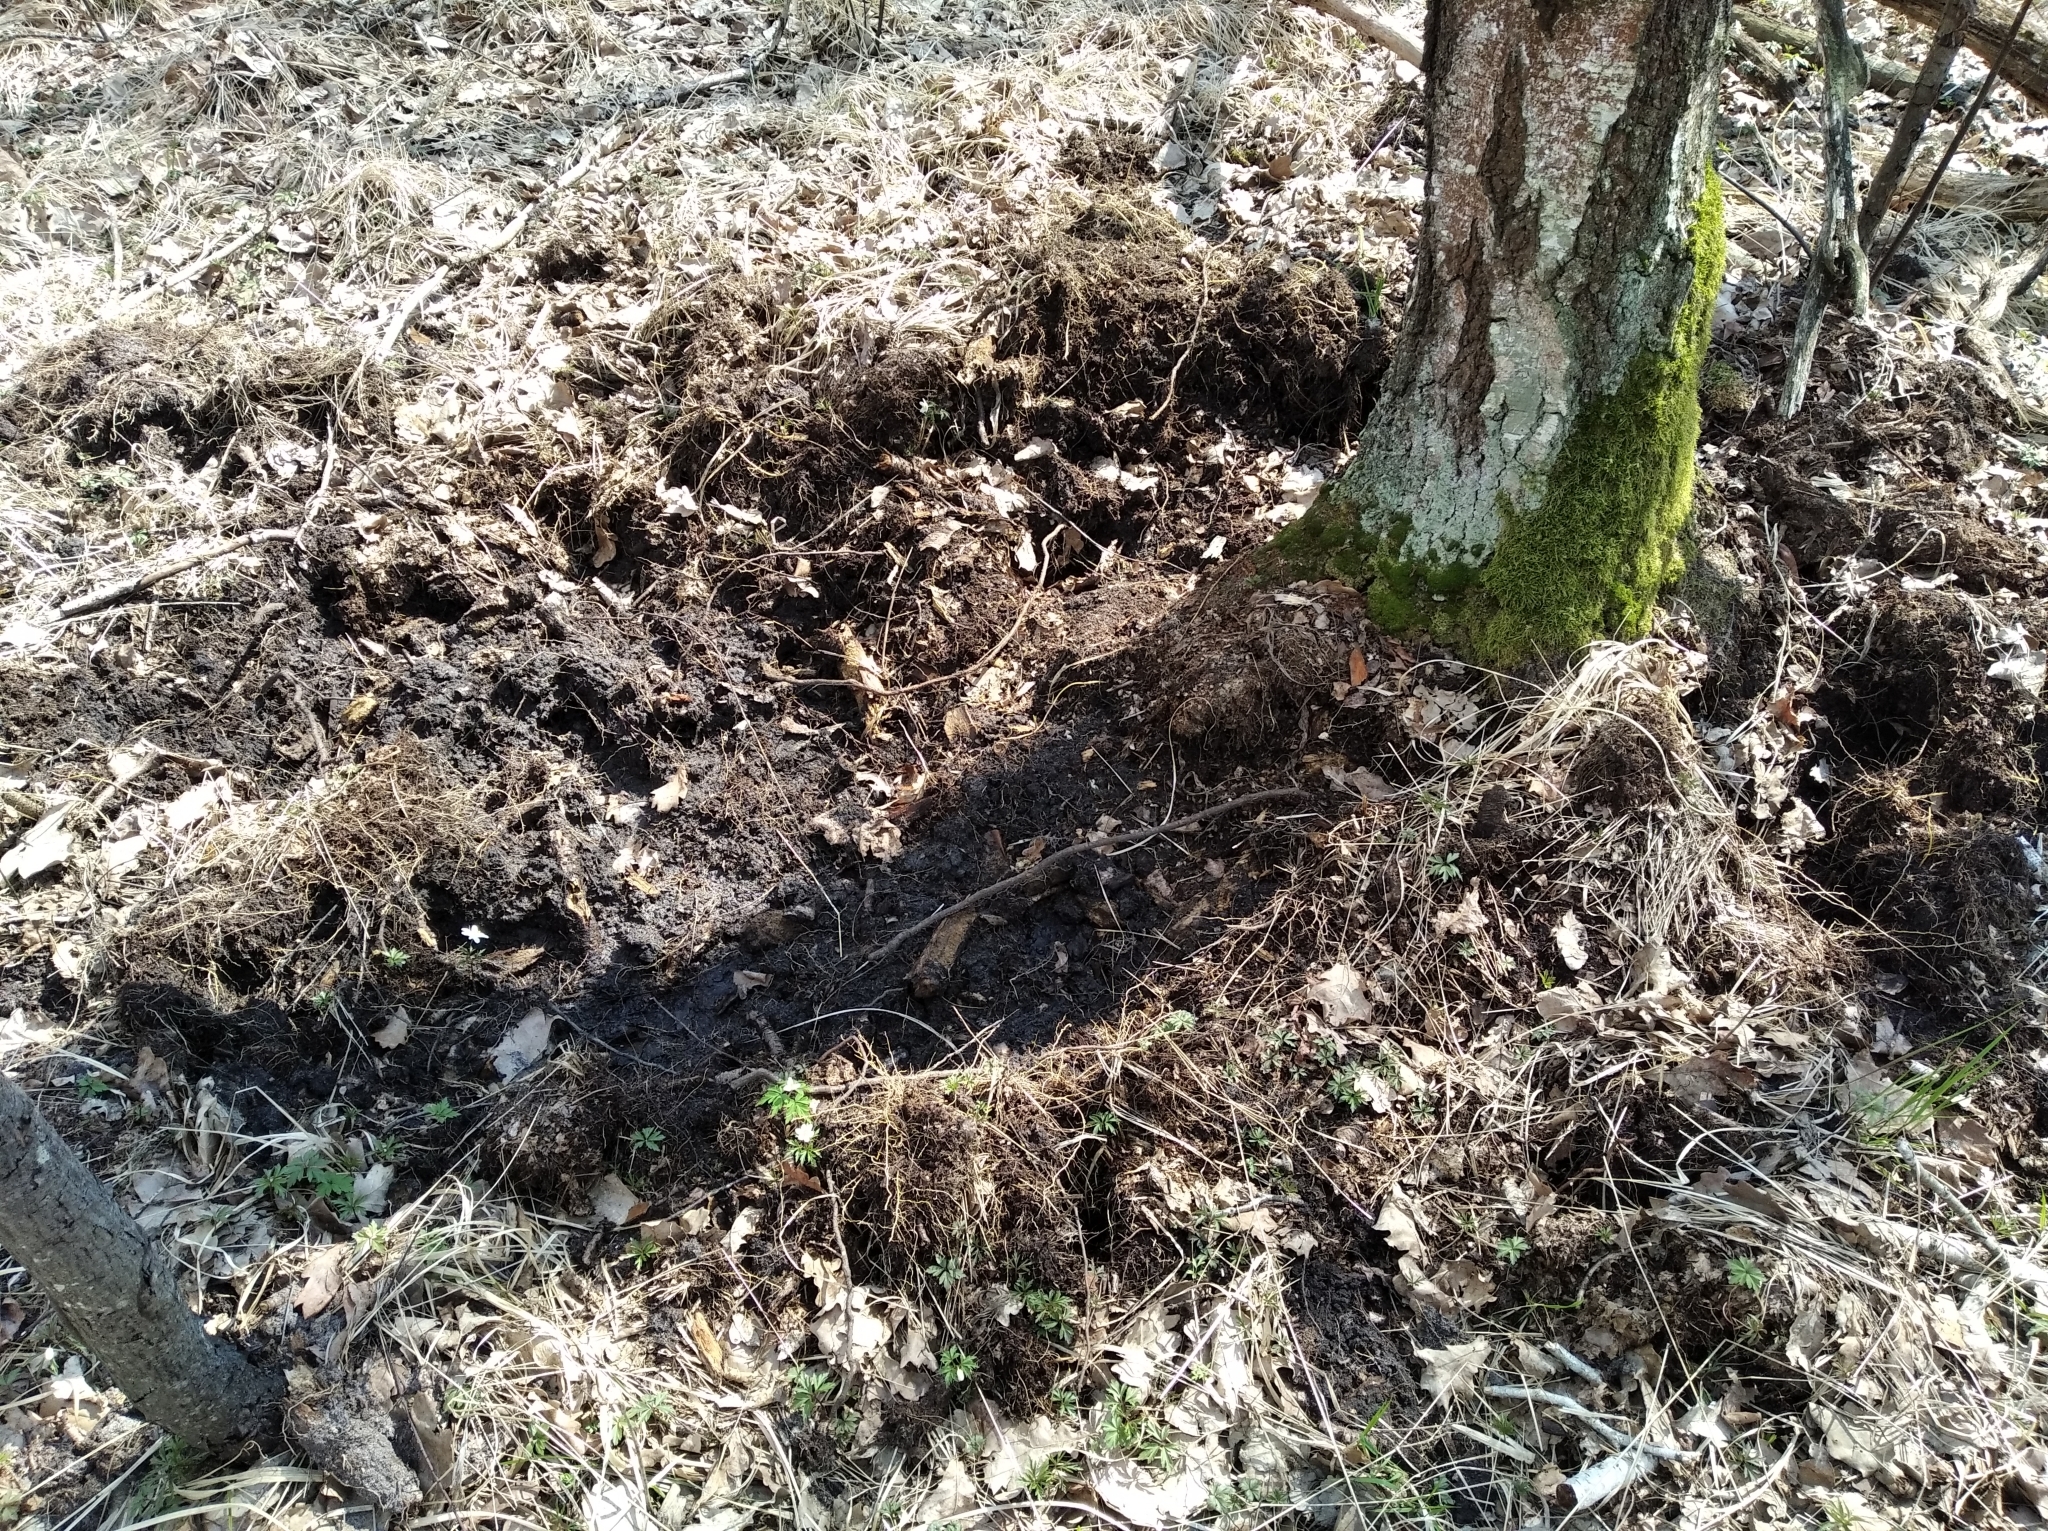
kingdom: Animalia
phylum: Chordata
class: Mammalia
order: Artiodactyla
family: Suidae
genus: Sus
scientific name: Sus scrofa
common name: Wild boar
